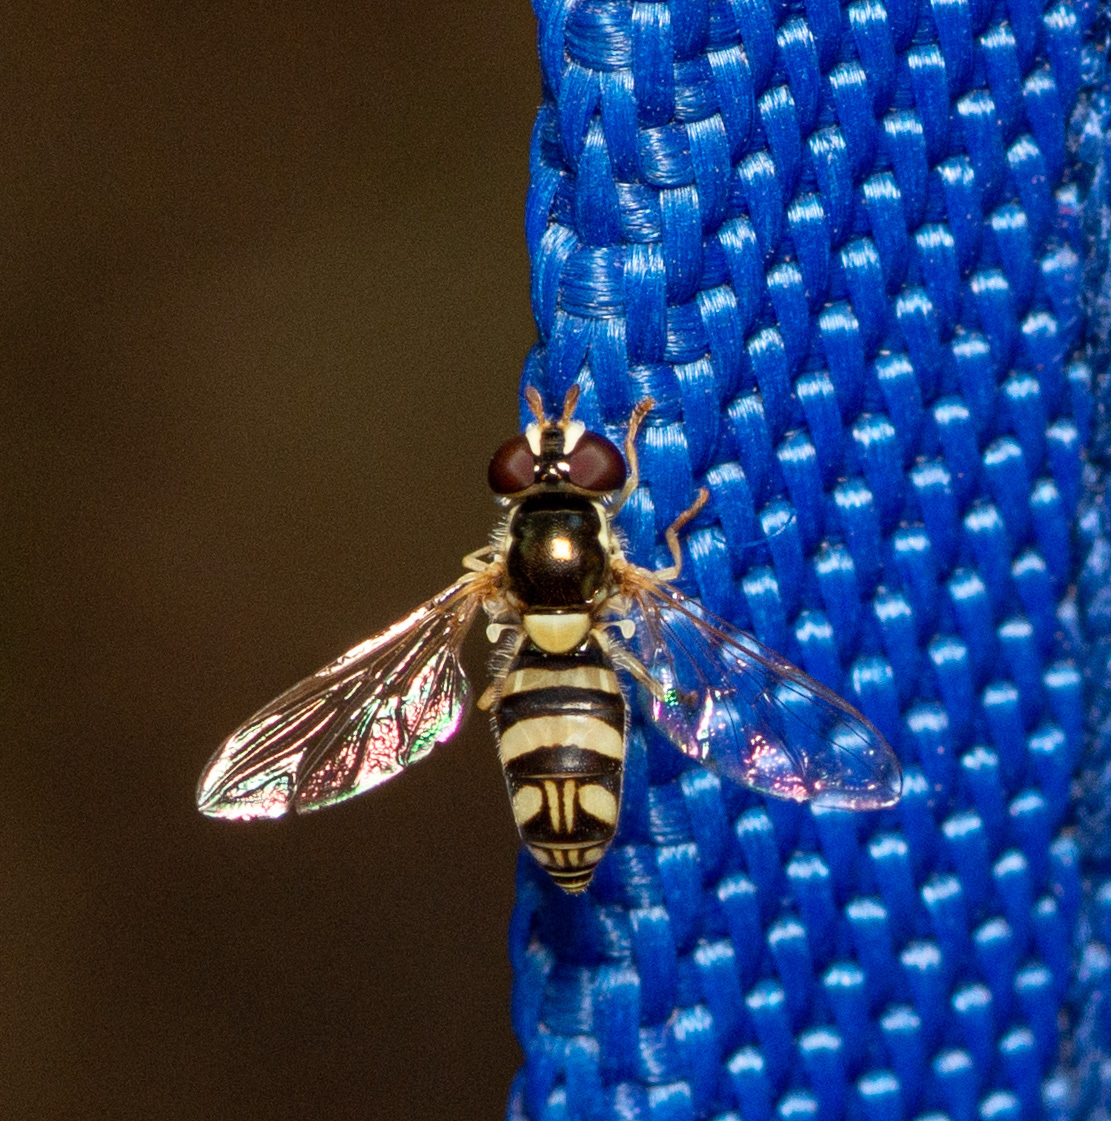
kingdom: Animalia
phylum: Arthropoda
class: Insecta
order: Diptera
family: Syrphidae
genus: Allograpta
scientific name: Allograpta exotica
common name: Syrphid fly
